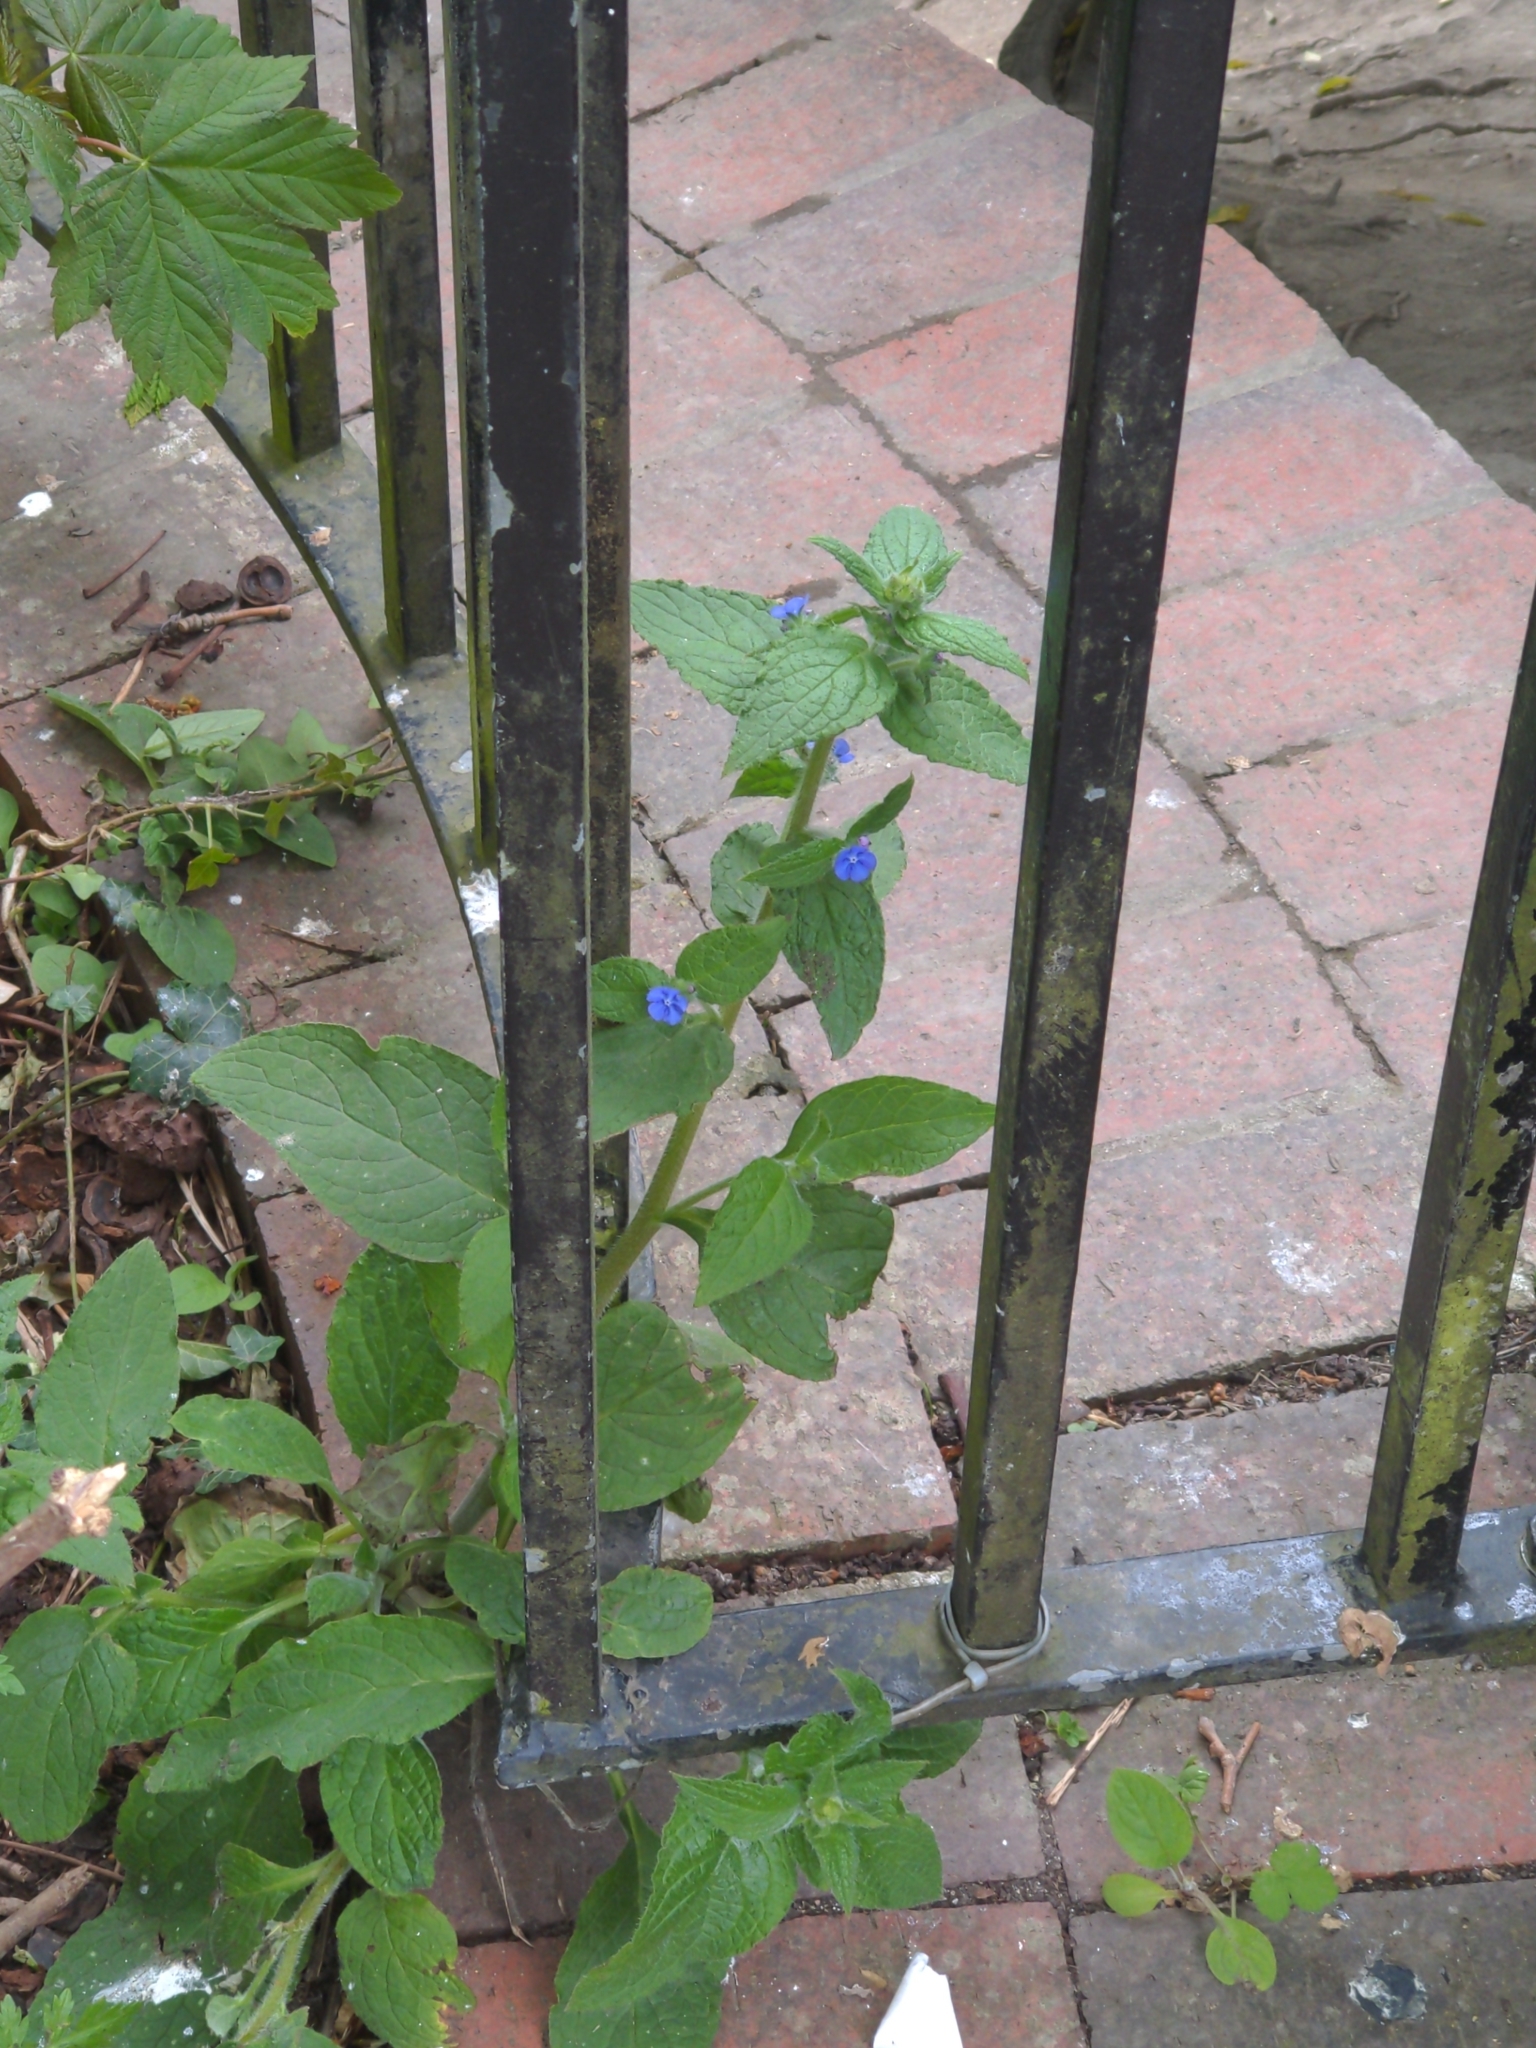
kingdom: Plantae
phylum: Tracheophyta
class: Magnoliopsida
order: Boraginales
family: Boraginaceae
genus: Pentaglottis
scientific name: Pentaglottis sempervirens
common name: Green alkanet
